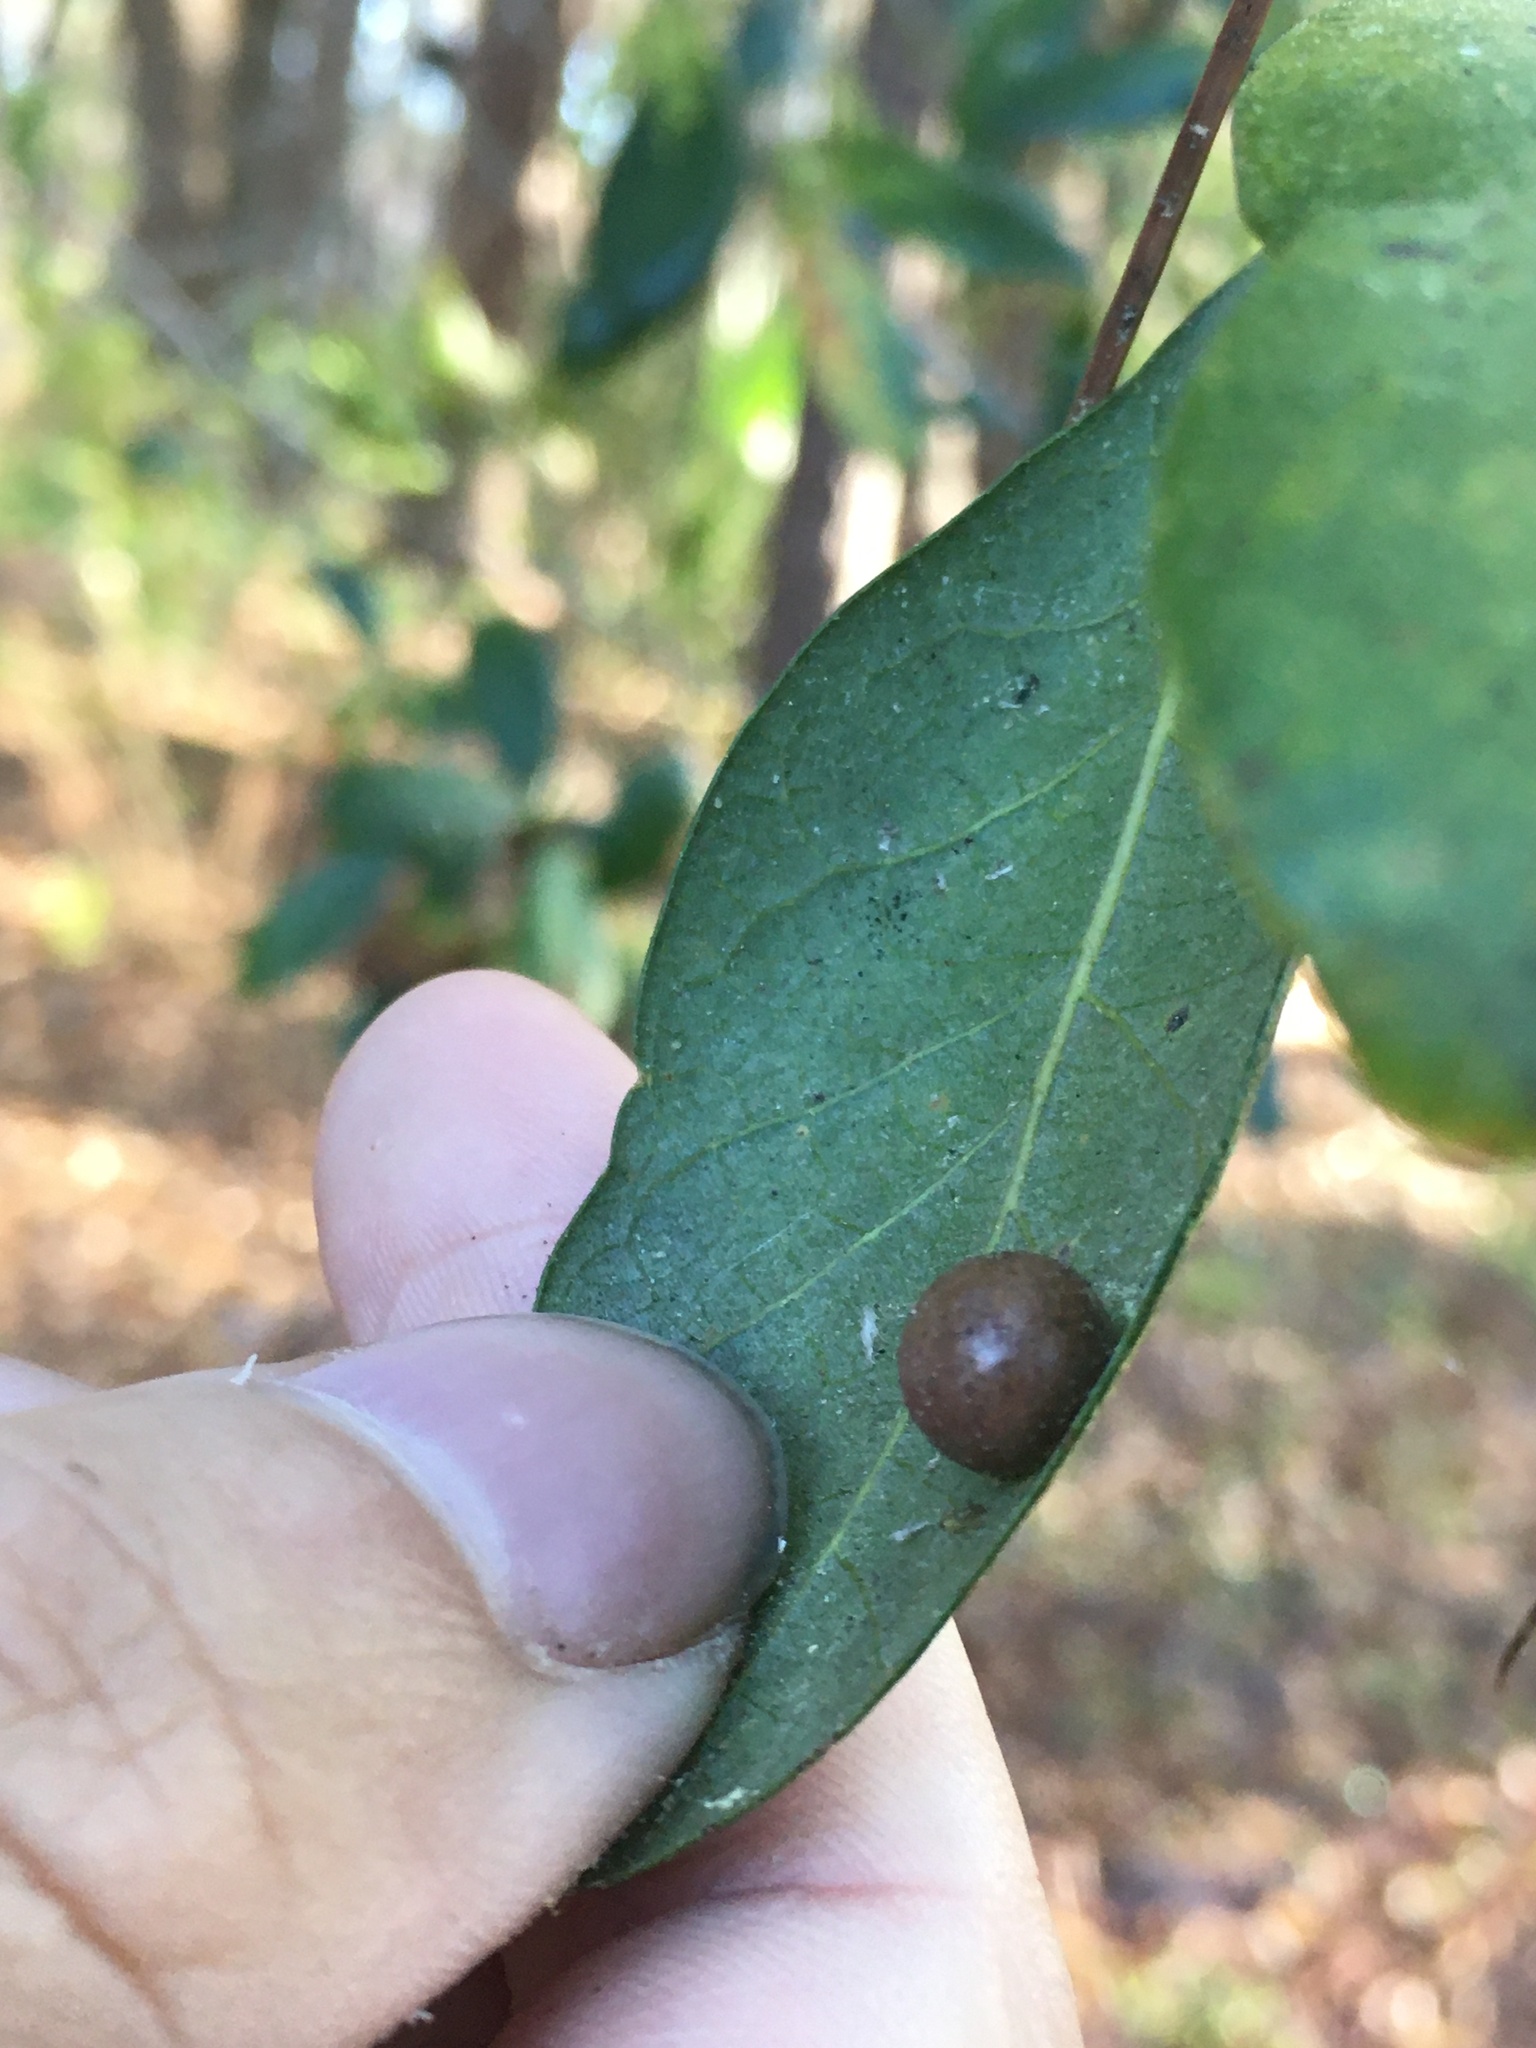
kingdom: Animalia
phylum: Arthropoda
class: Insecta
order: Hymenoptera
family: Cynipidae
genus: Belonocnema
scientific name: Belonocnema treatae
